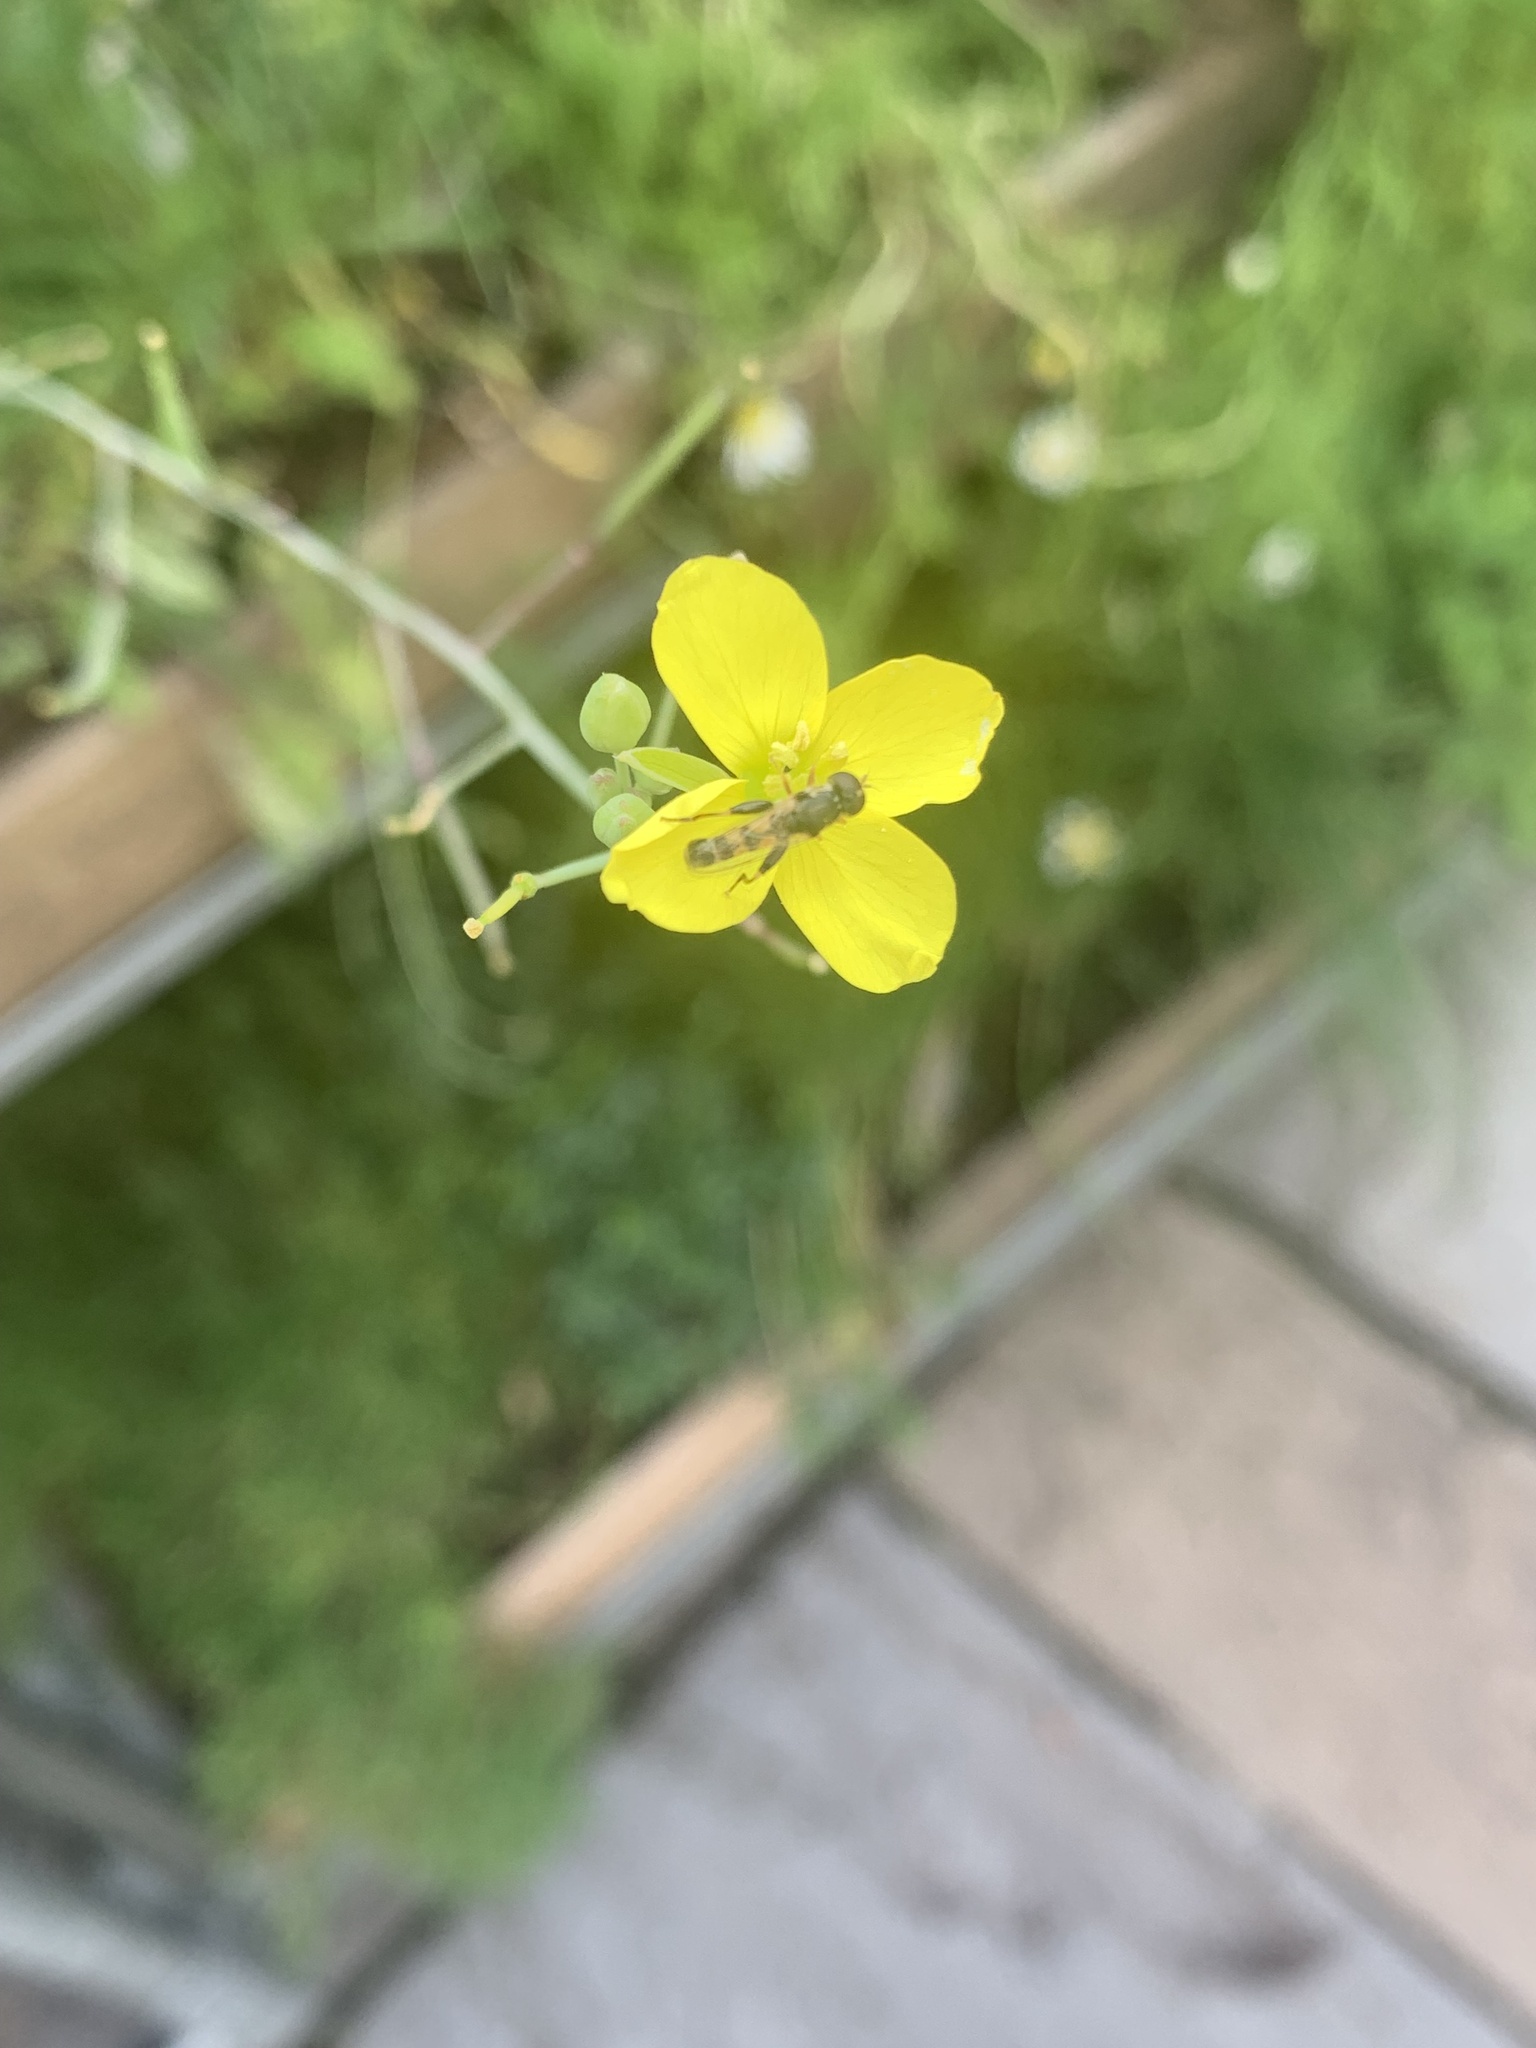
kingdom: Animalia
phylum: Arthropoda
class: Insecta
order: Diptera
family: Syrphidae
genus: Syritta
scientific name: Syritta pipiens
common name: Hover fly
